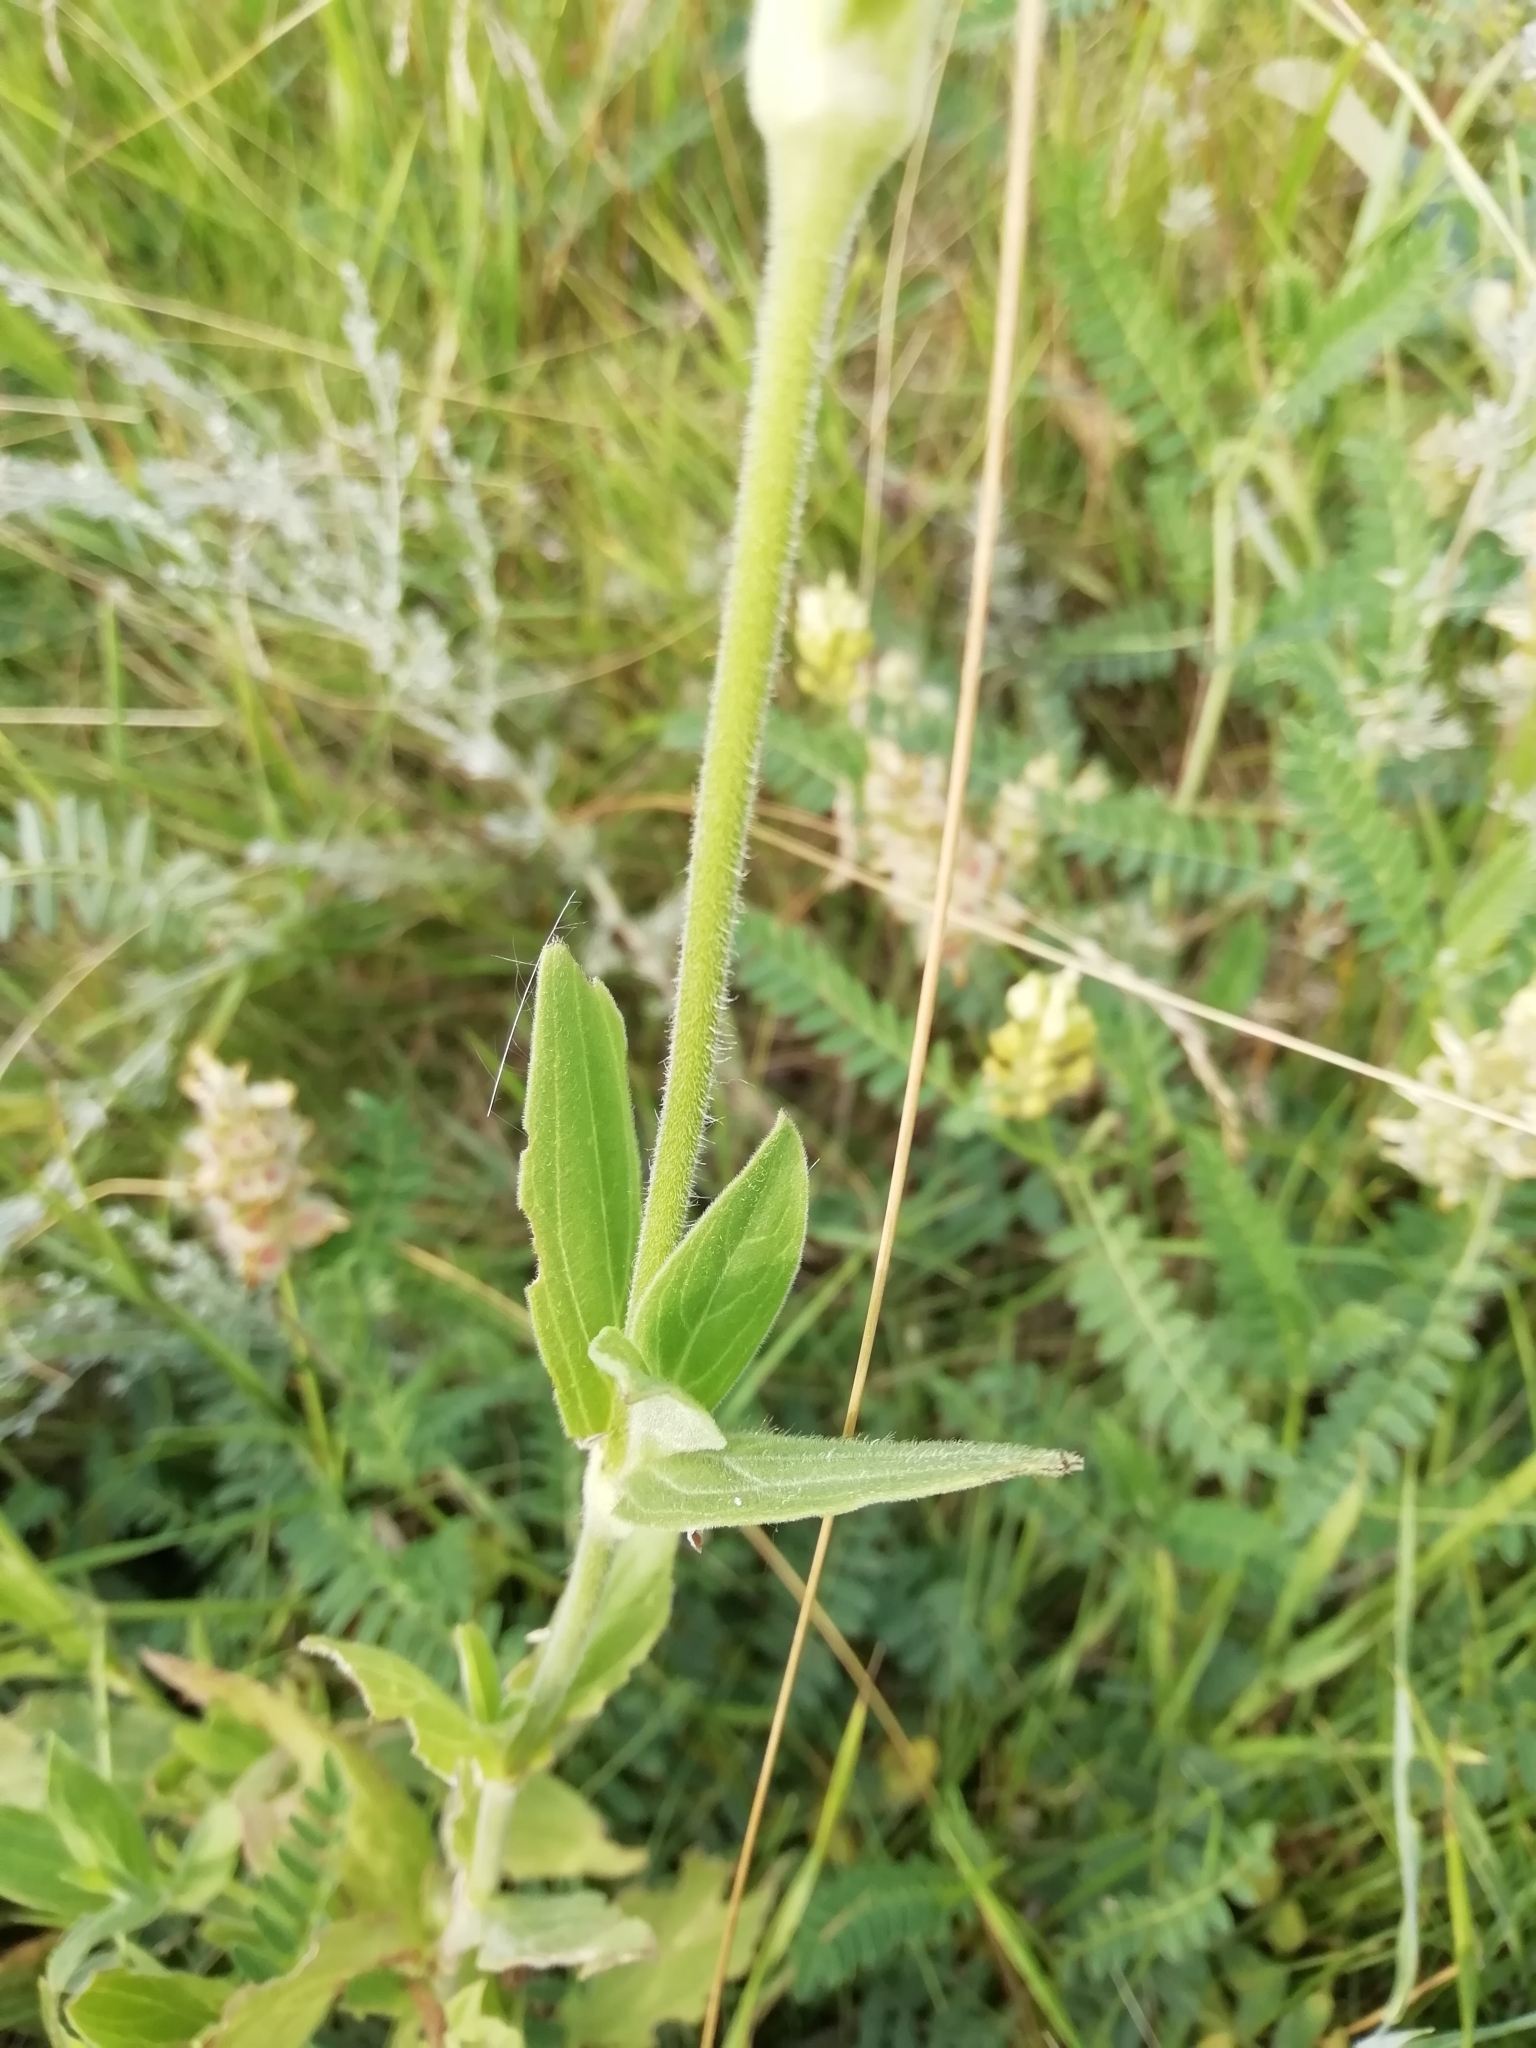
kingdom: Plantae
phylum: Tracheophyta
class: Magnoliopsida
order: Caryophyllales
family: Caryophyllaceae
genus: Silene
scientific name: Silene latifolia
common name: White campion
